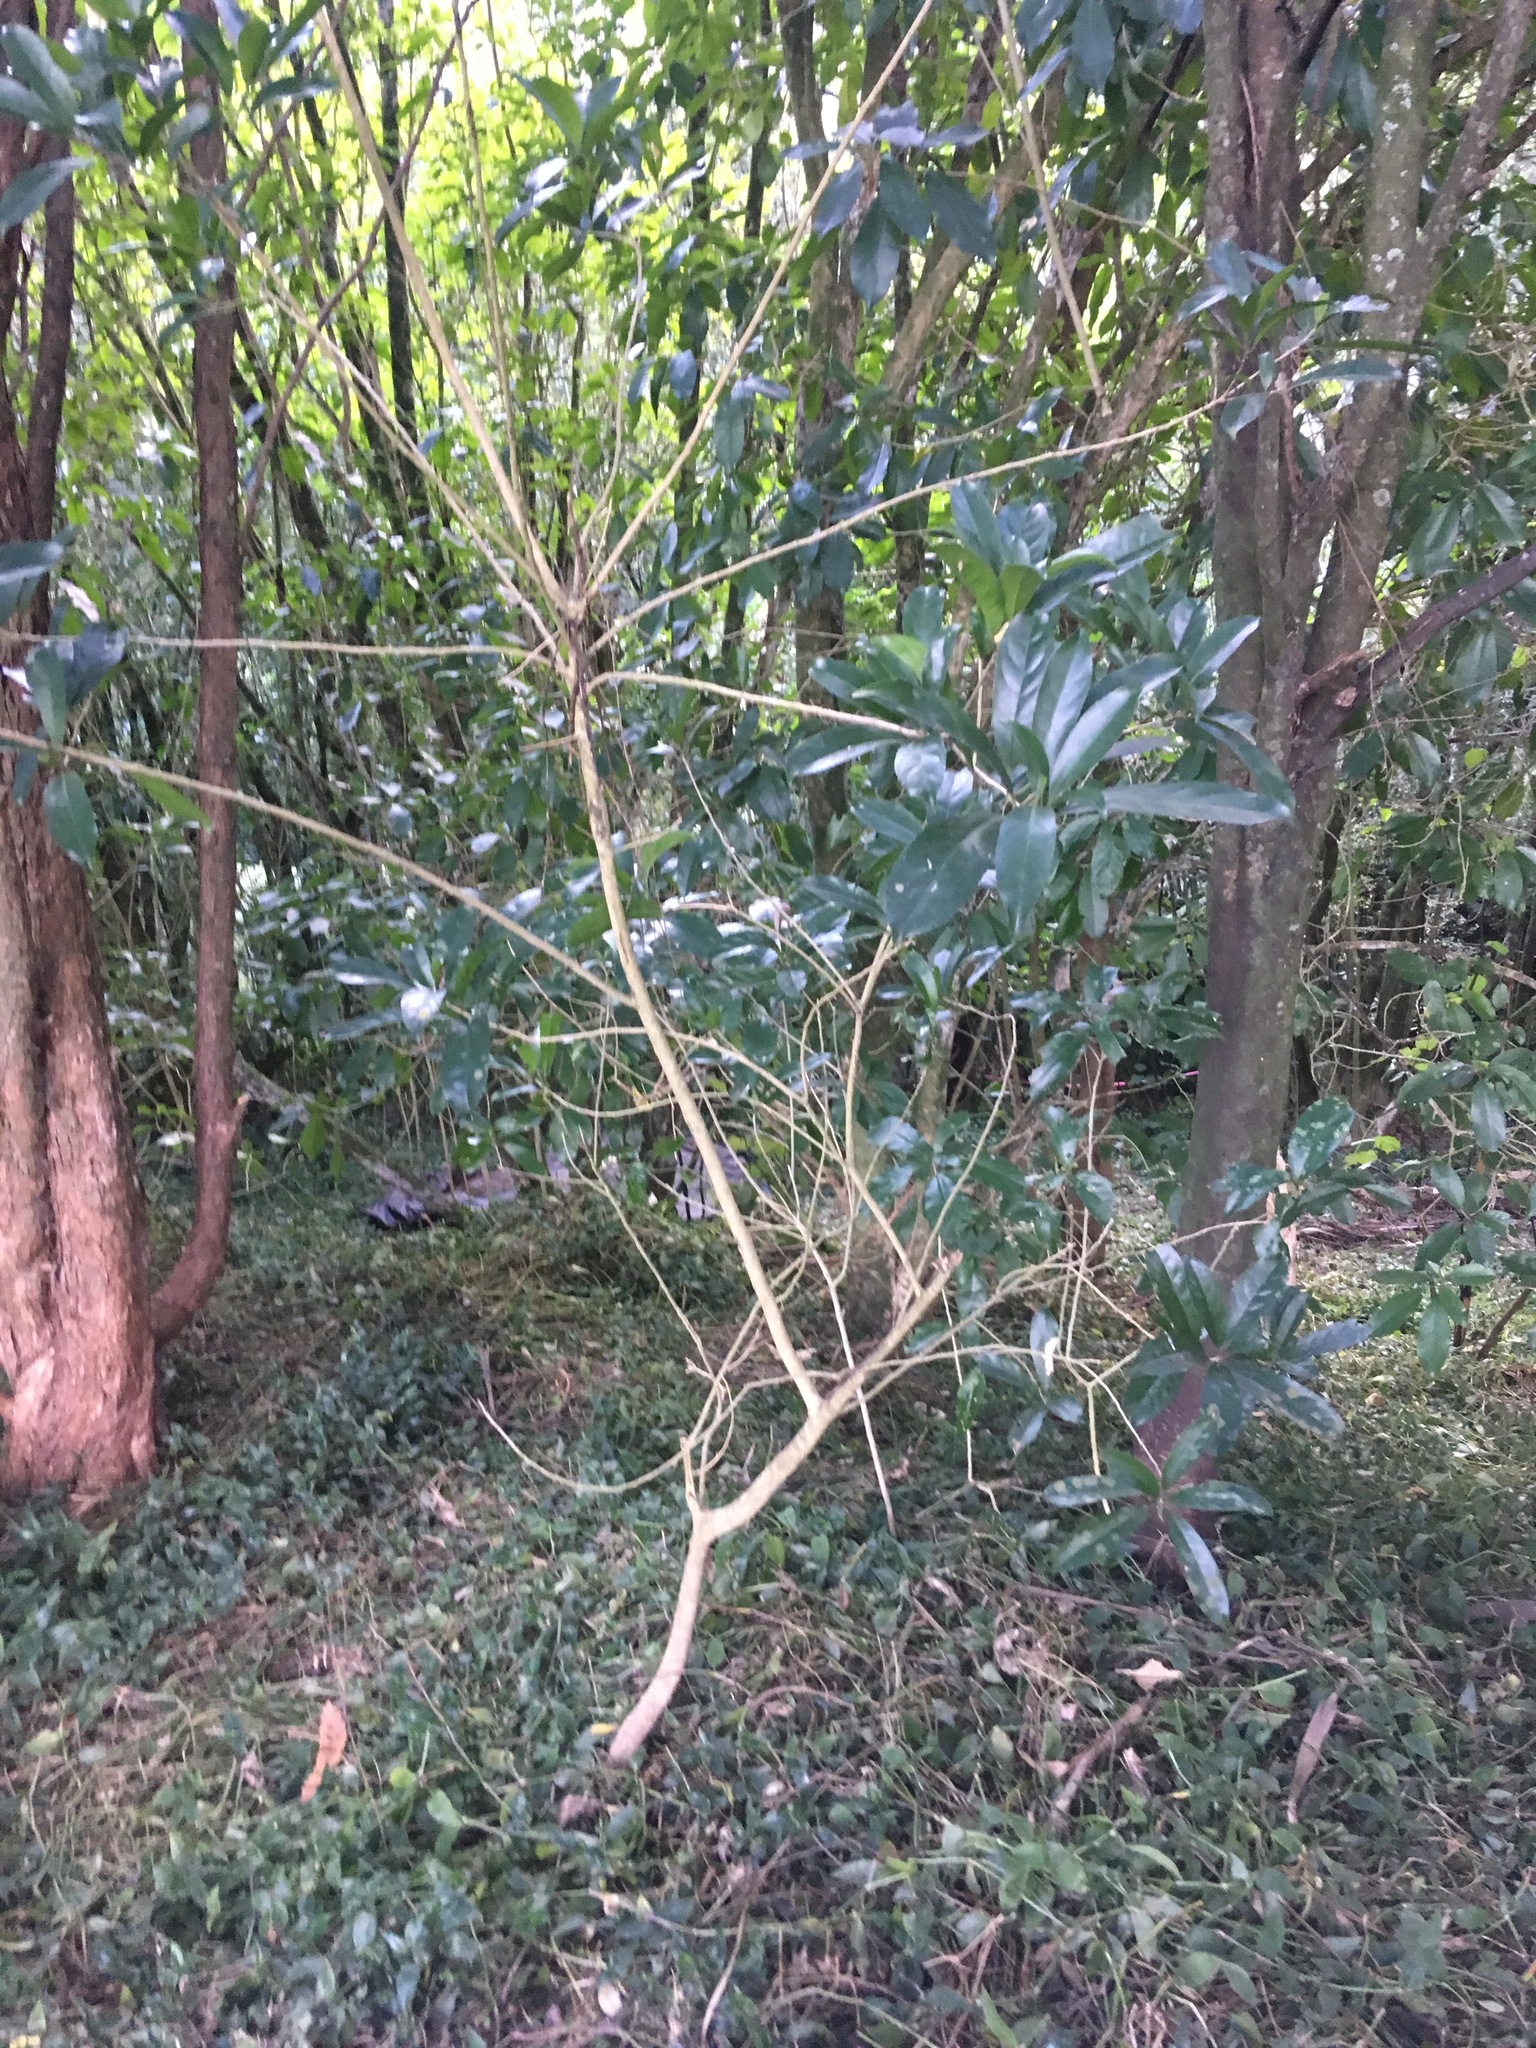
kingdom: Plantae
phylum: Tracheophyta
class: Magnoliopsida
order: Malpighiales
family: Violaceae
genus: Melicytus
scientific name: Melicytus ramiflorus
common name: Mahoe
